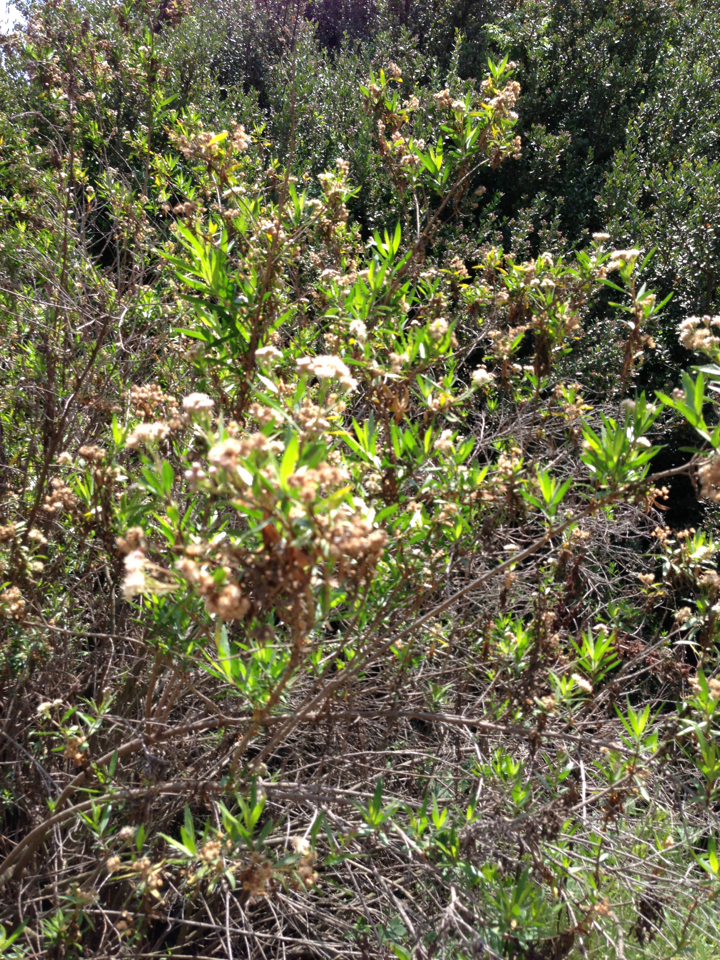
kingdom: Plantae
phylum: Tracheophyta
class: Magnoliopsida
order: Asterales
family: Asteraceae
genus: Baccharis
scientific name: Baccharis salicifolia
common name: Sticky baccharis
